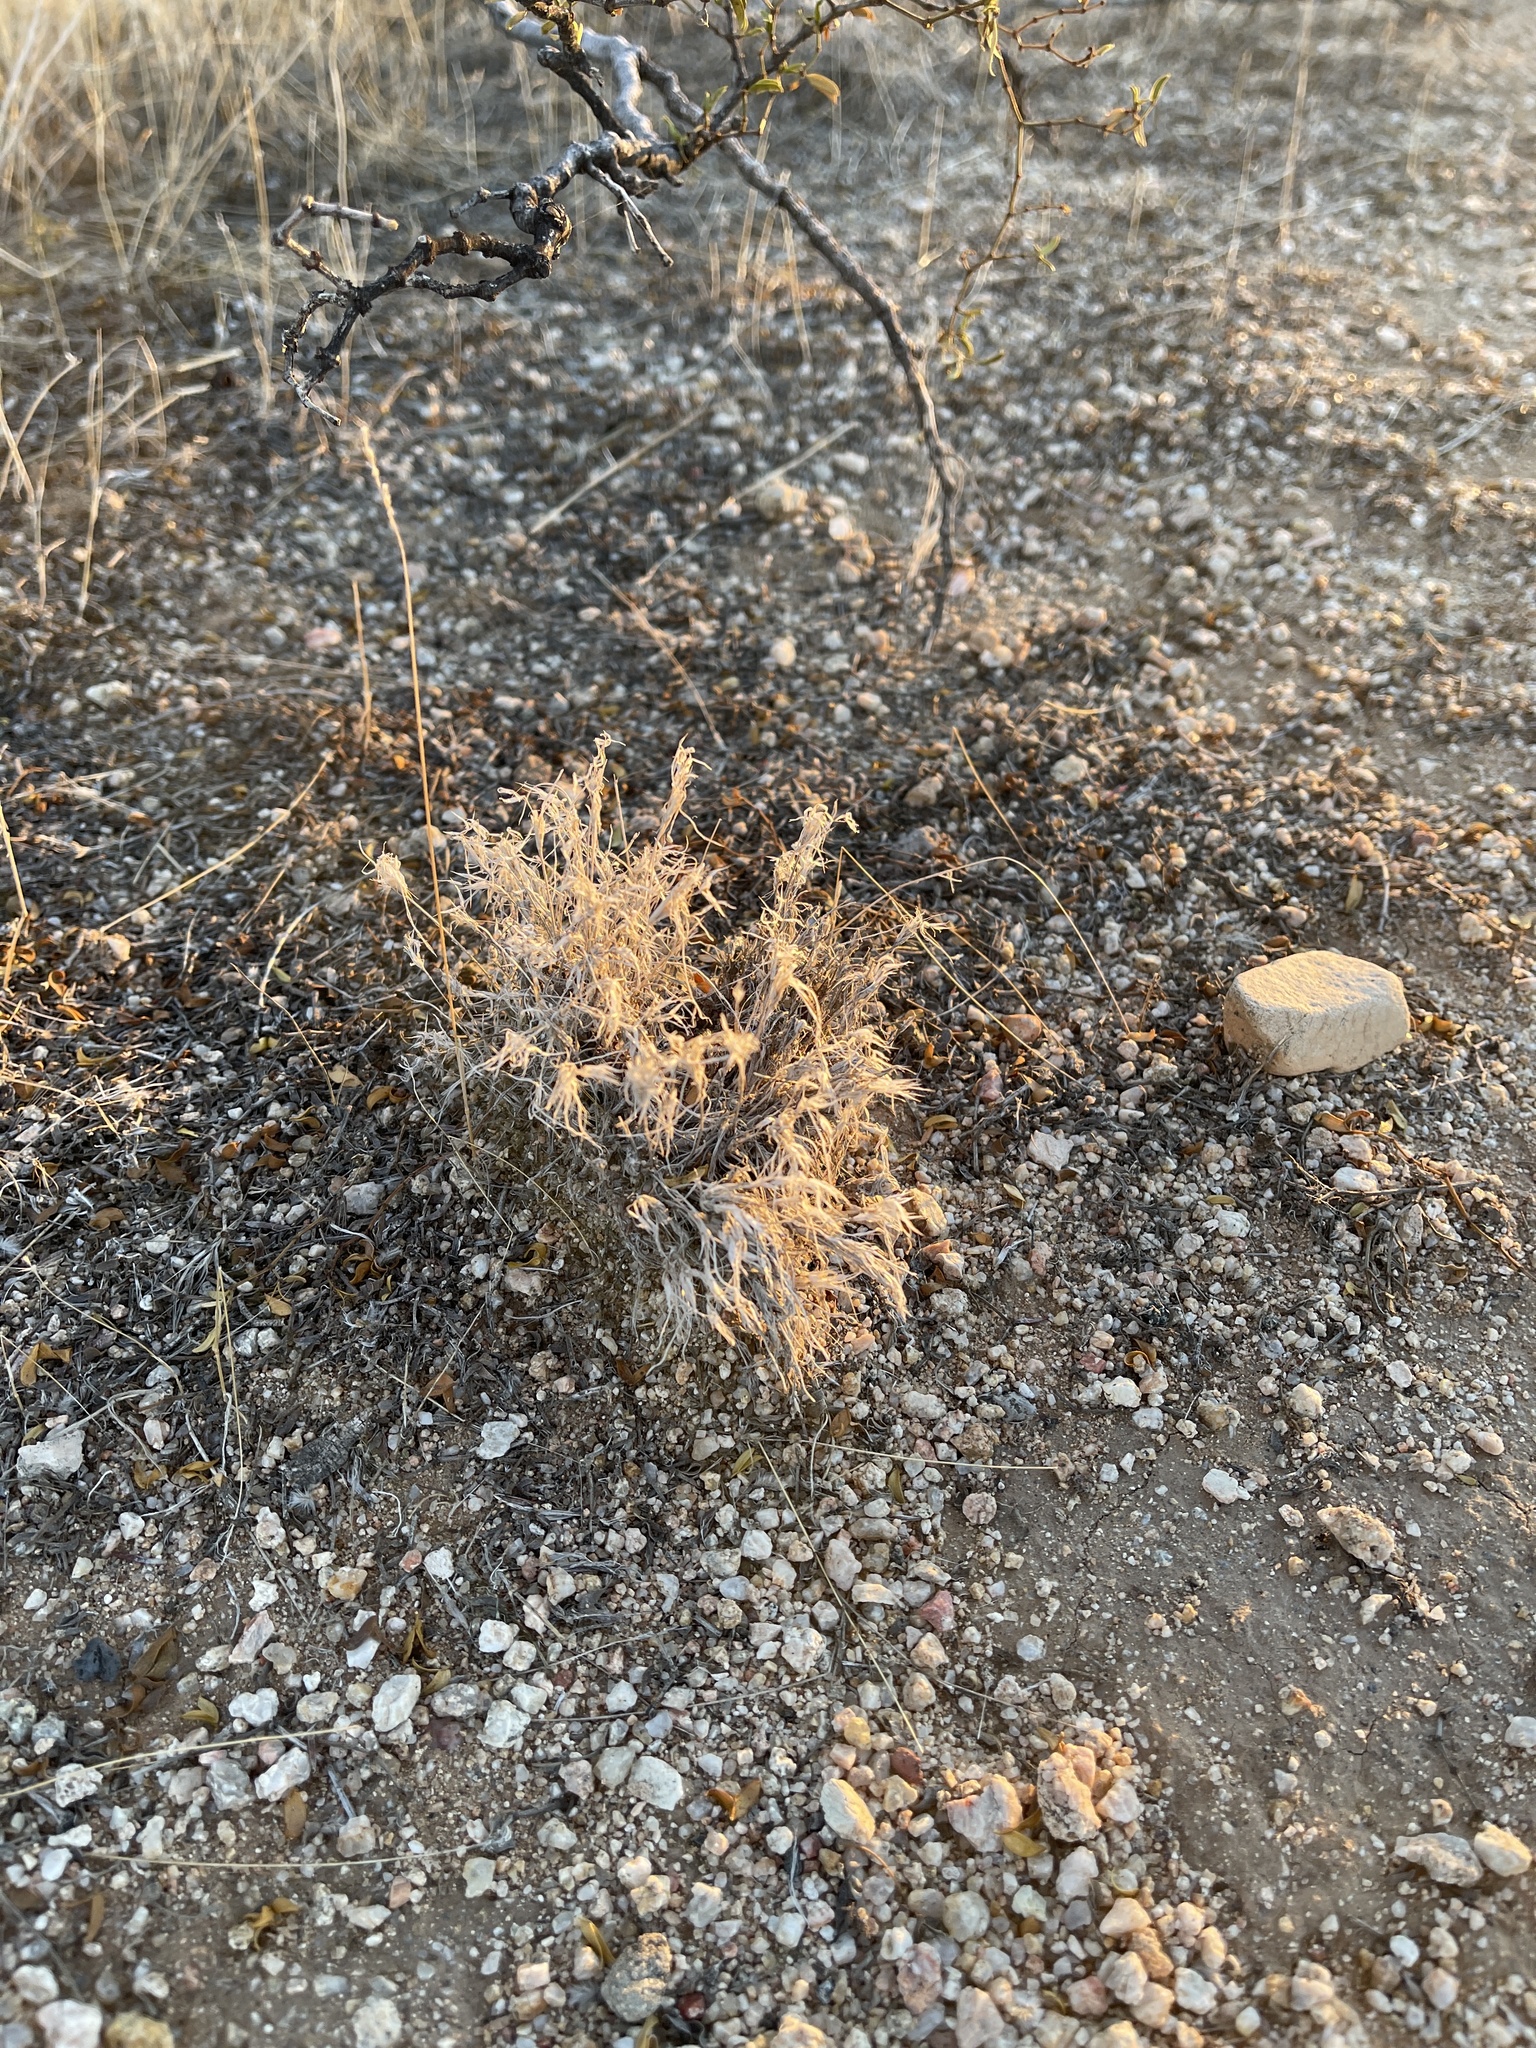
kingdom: Plantae
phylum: Tracheophyta
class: Liliopsida
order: Poales
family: Poaceae
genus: Dasyochloa
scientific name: Dasyochloa pulchella
